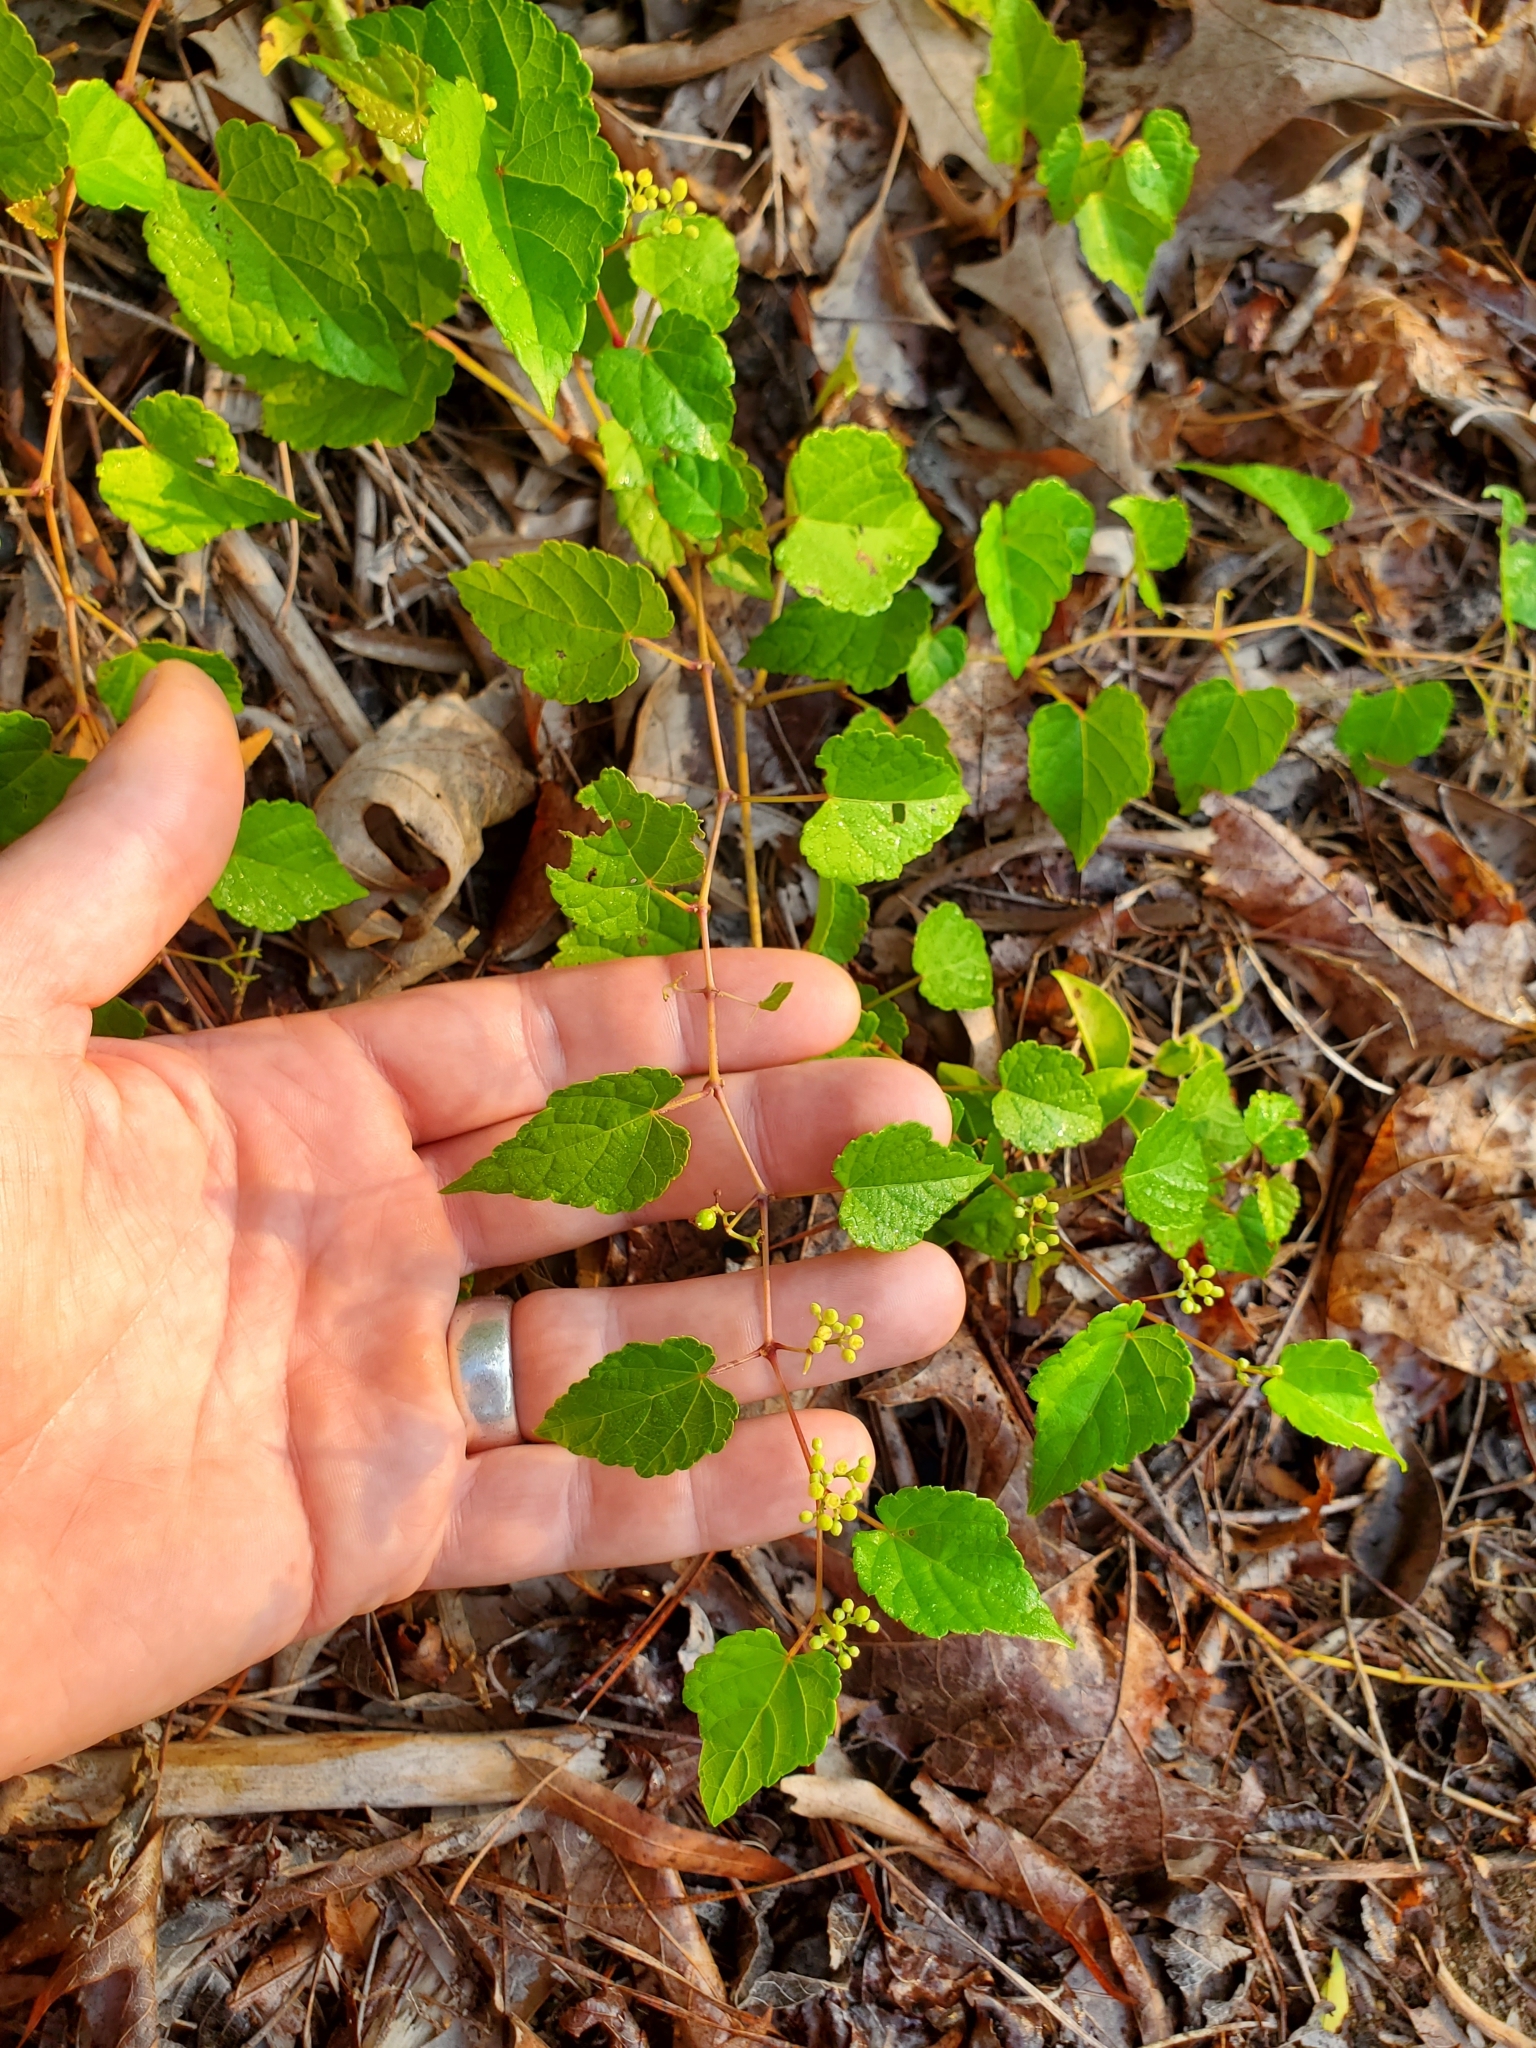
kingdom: Plantae
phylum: Tracheophyta
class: Magnoliopsida
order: Vitales
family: Vitaceae
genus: Ampelopsis
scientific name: Ampelopsis glandulosa
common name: Amur peppervine
